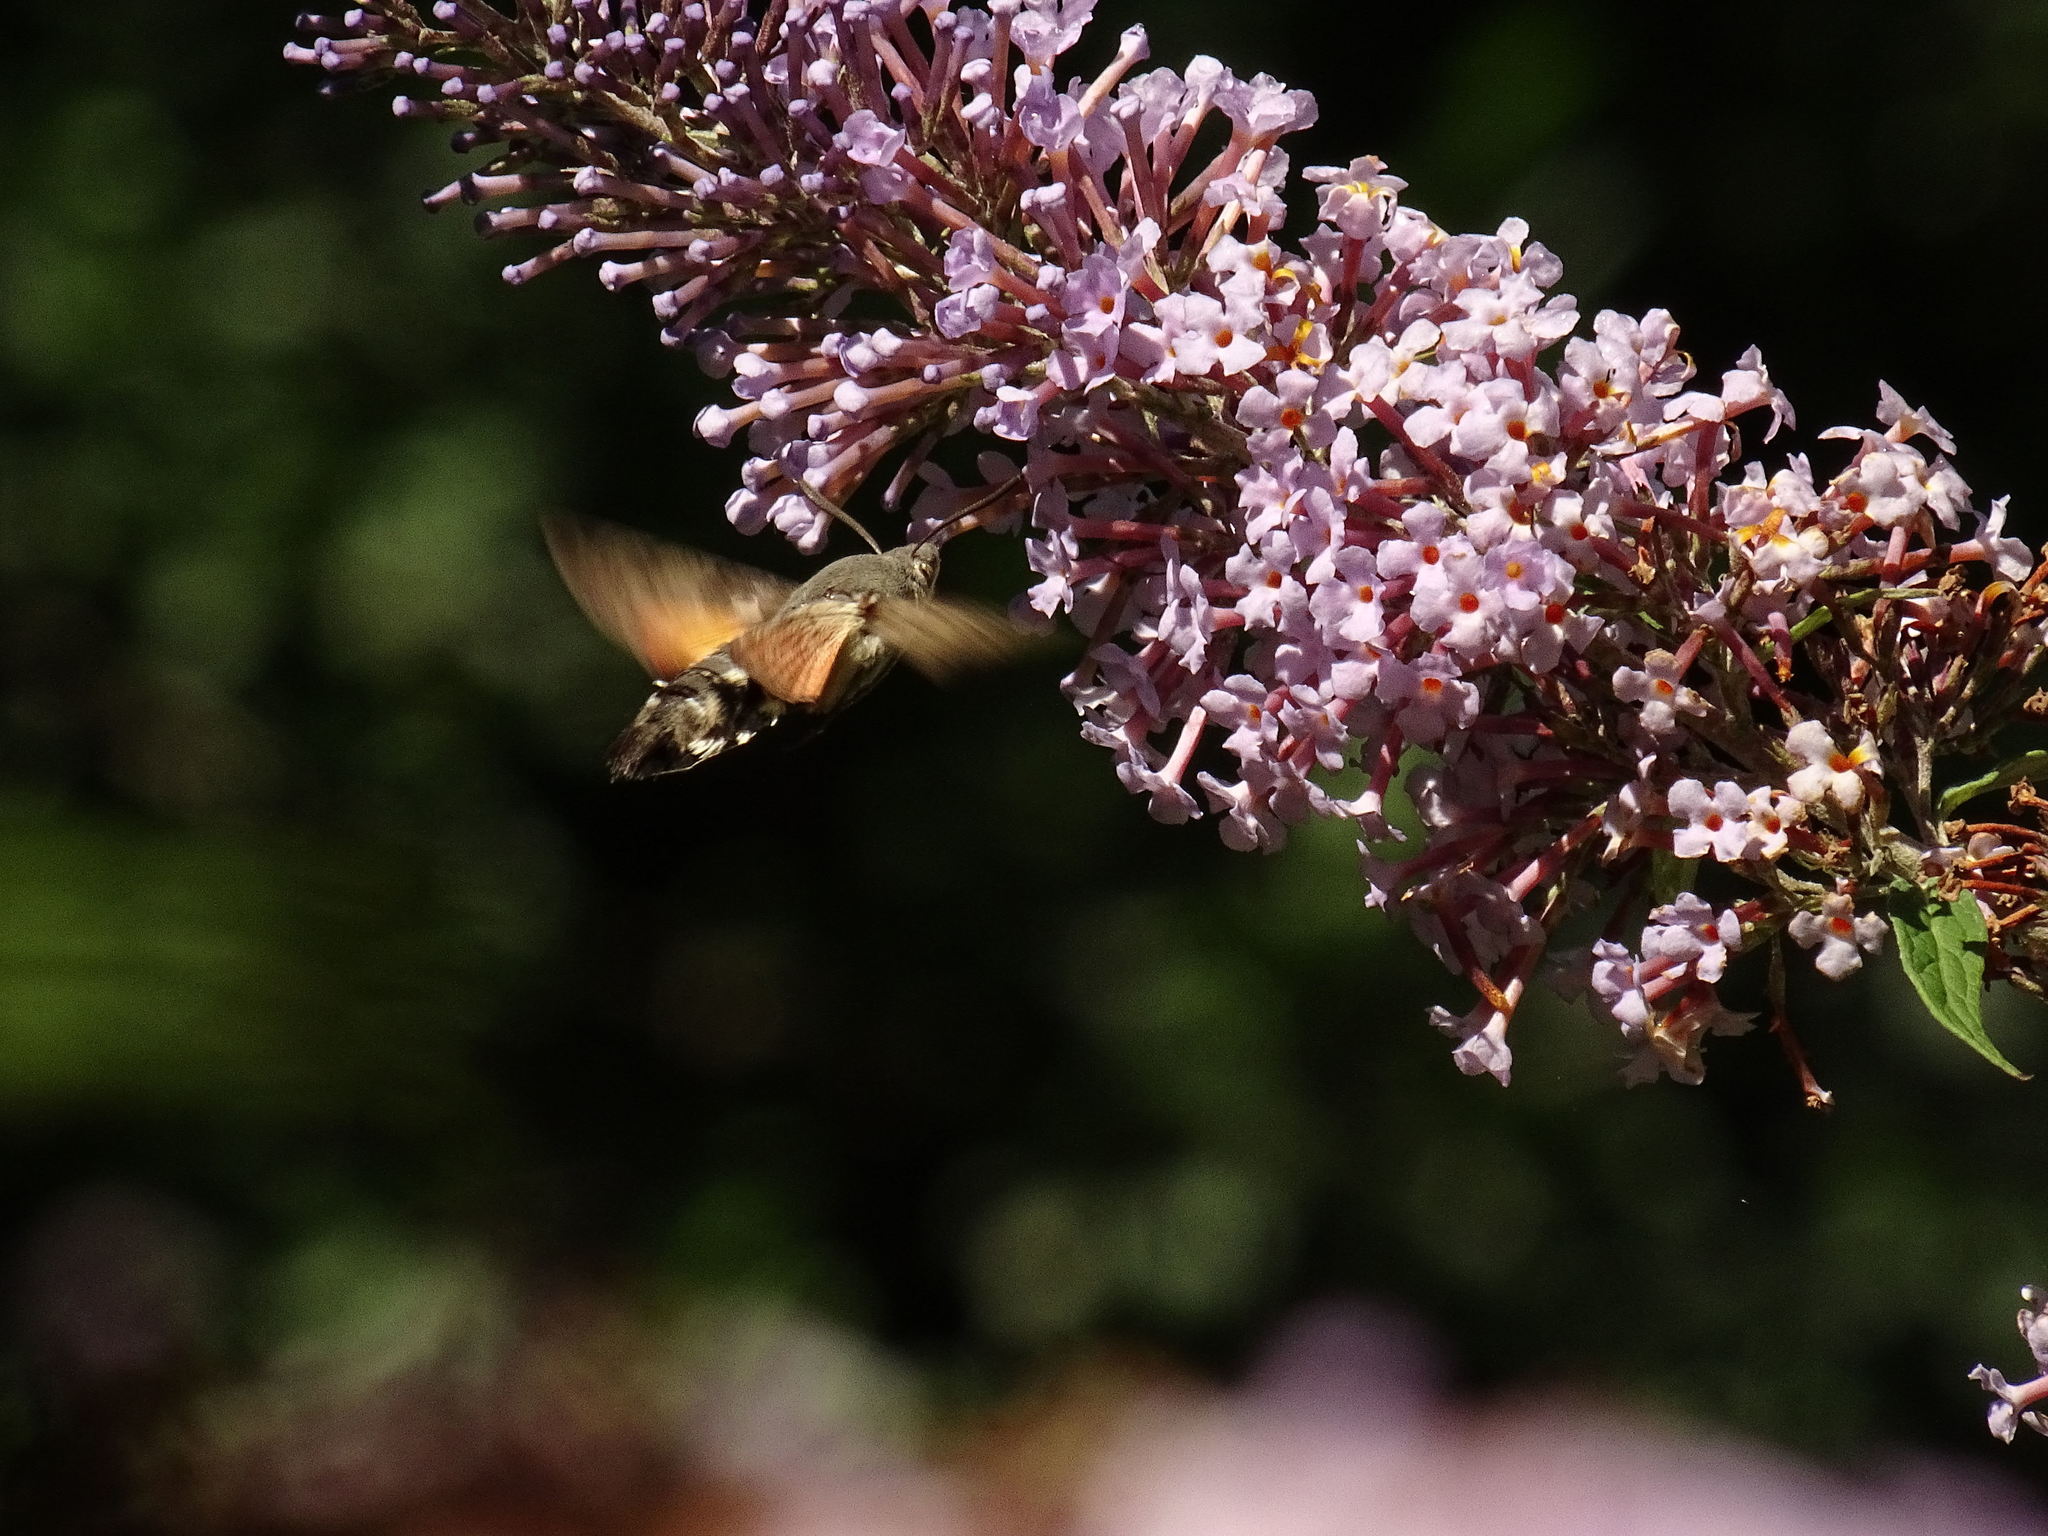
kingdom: Animalia
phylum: Arthropoda
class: Insecta
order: Lepidoptera
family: Sphingidae
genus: Macroglossum
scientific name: Macroglossum stellatarum
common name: Humming-bird hawk-moth
